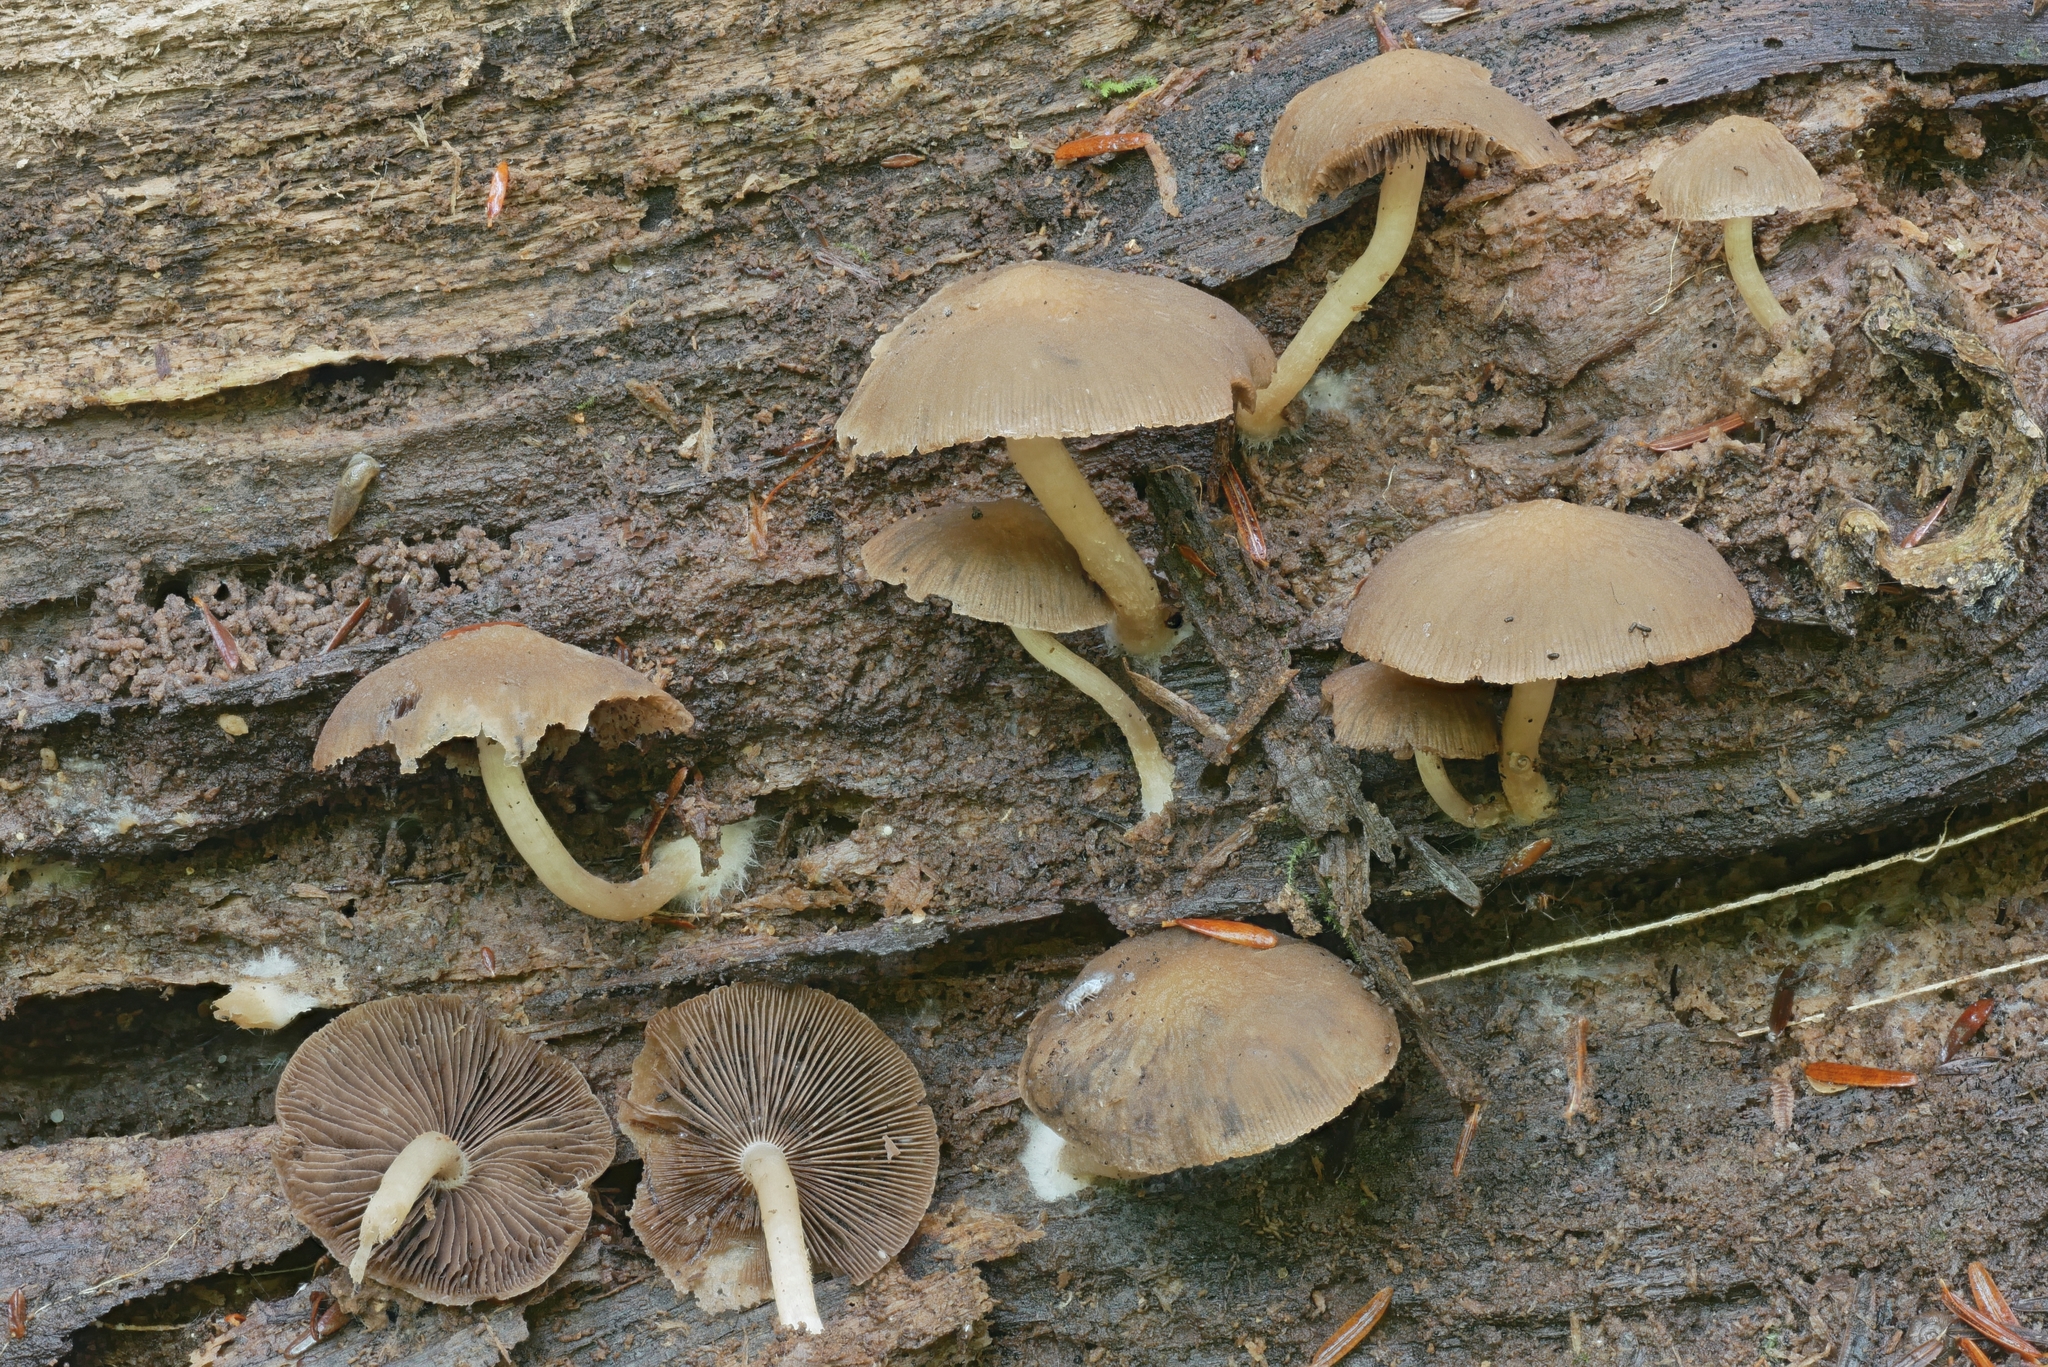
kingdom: Fungi
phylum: Basidiomycota
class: Agaricomycetes
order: Agaricales
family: Psathyrellaceae
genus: Psathyrella
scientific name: Psathyrella carinthiaca
